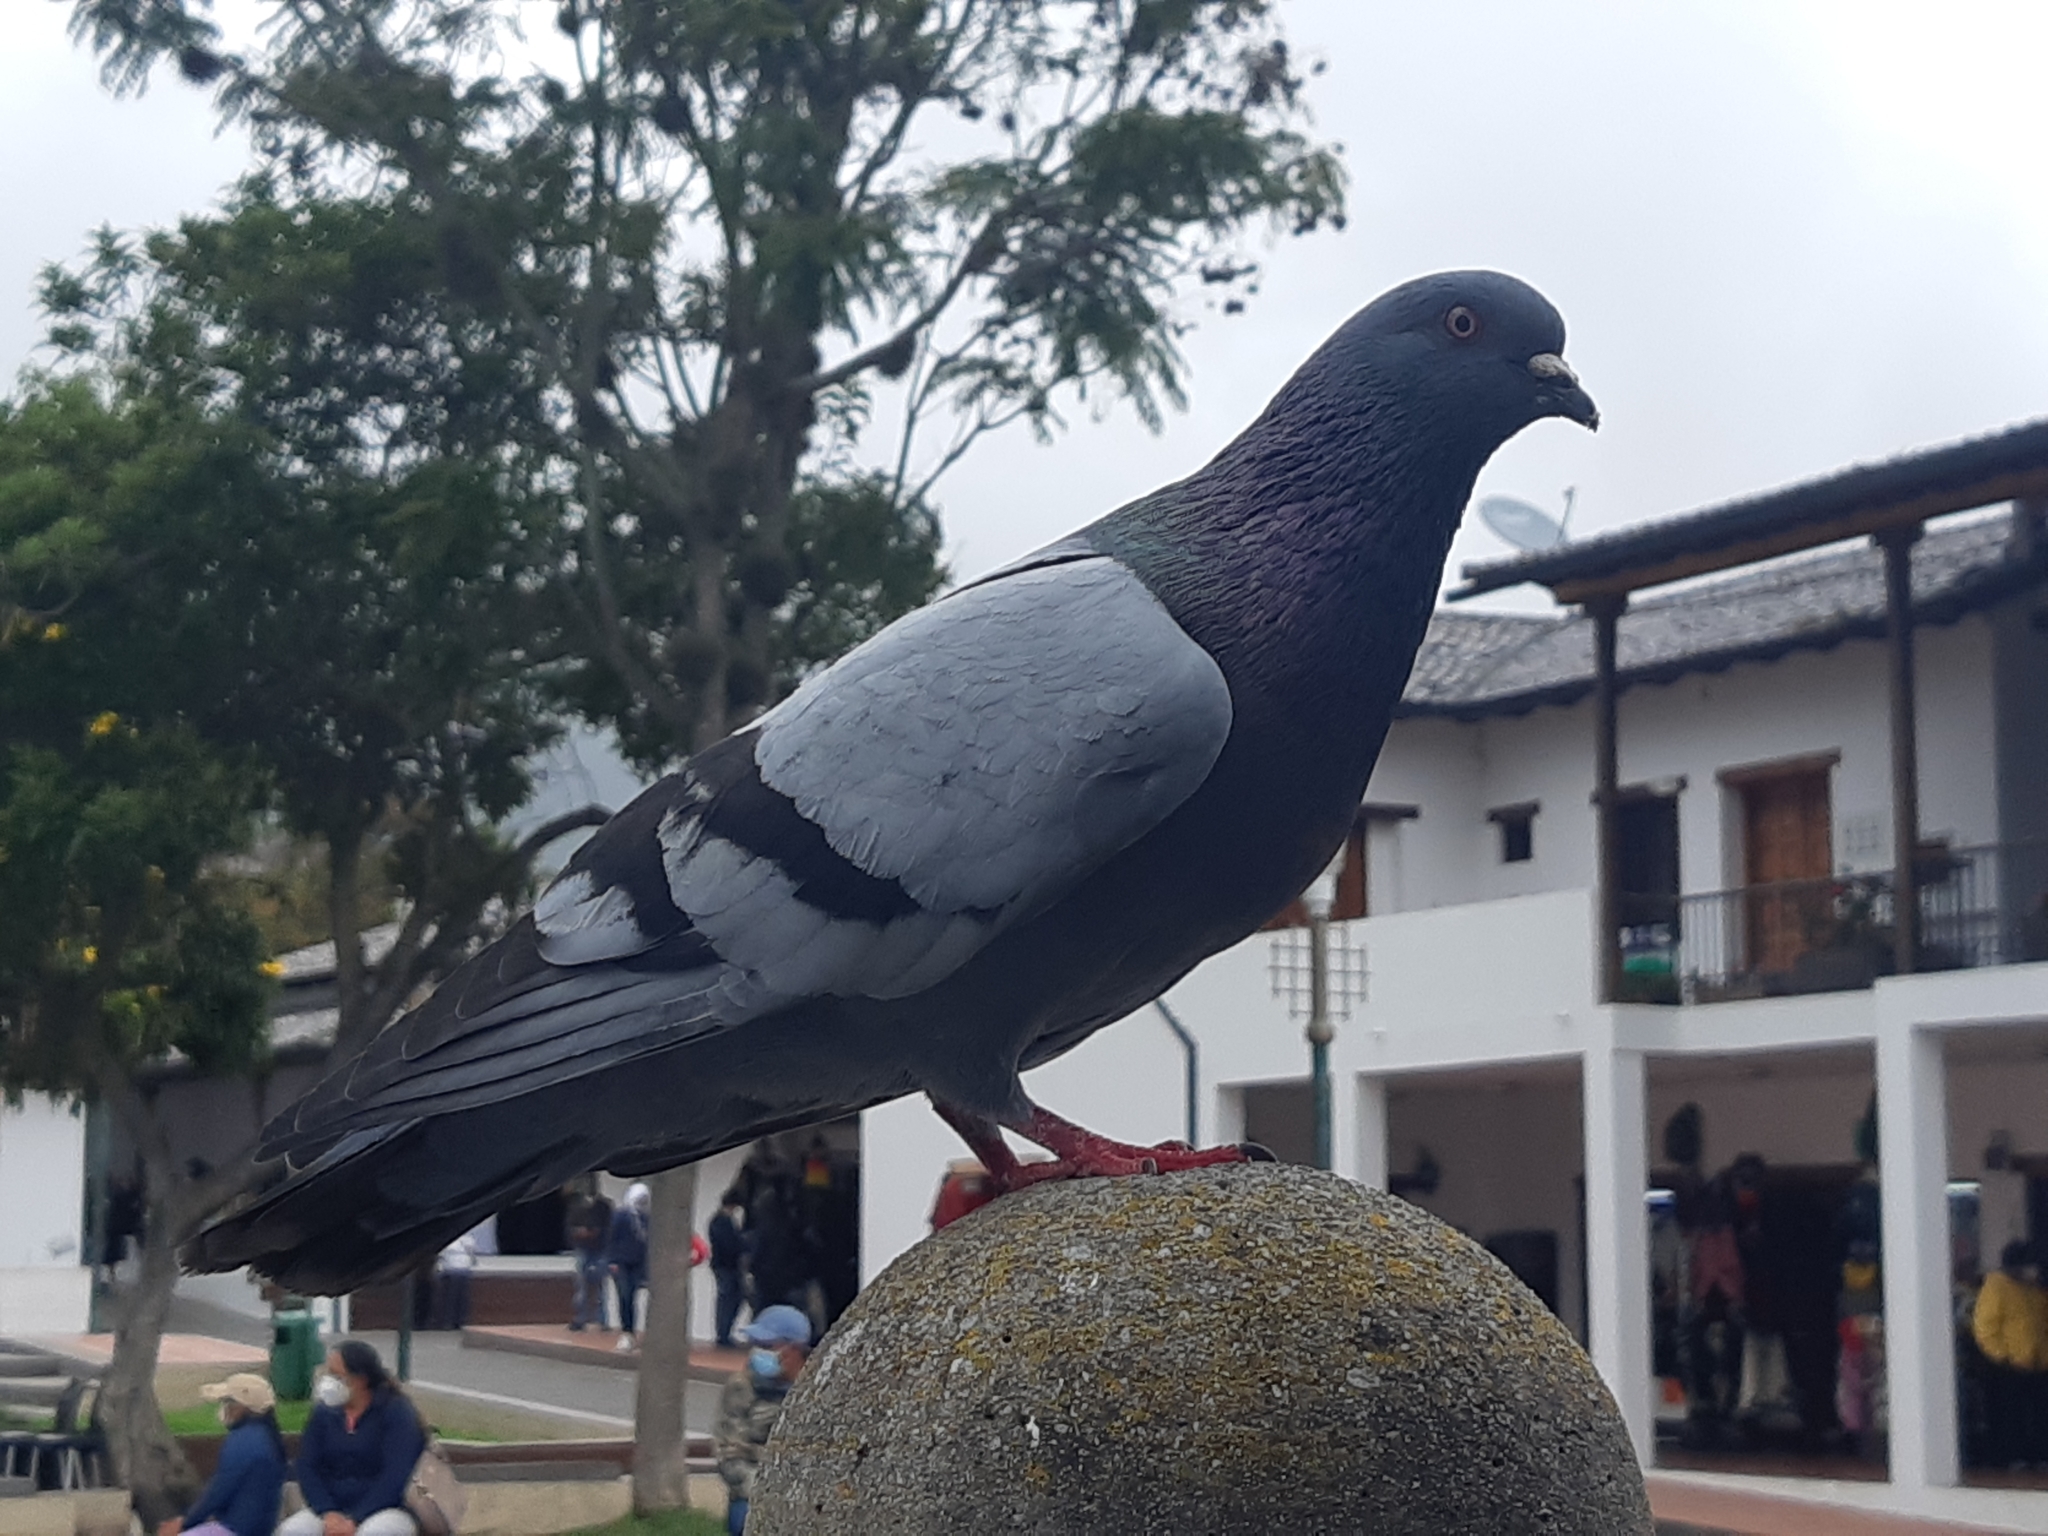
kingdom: Animalia
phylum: Chordata
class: Aves
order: Columbiformes
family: Columbidae
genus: Columba
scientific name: Columba livia
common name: Rock pigeon
